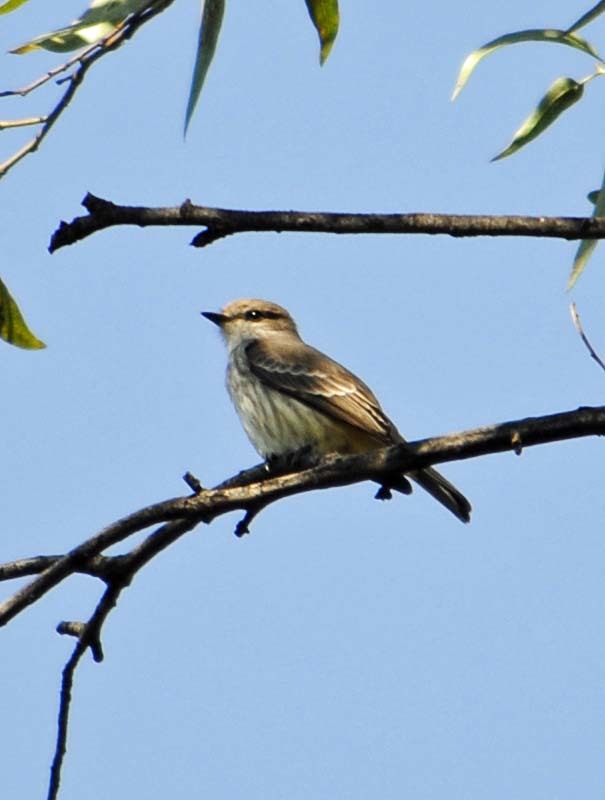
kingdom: Animalia
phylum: Chordata
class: Aves
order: Passeriformes
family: Tyrannidae
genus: Pyrocephalus
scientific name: Pyrocephalus rubinus
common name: Vermilion flycatcher
